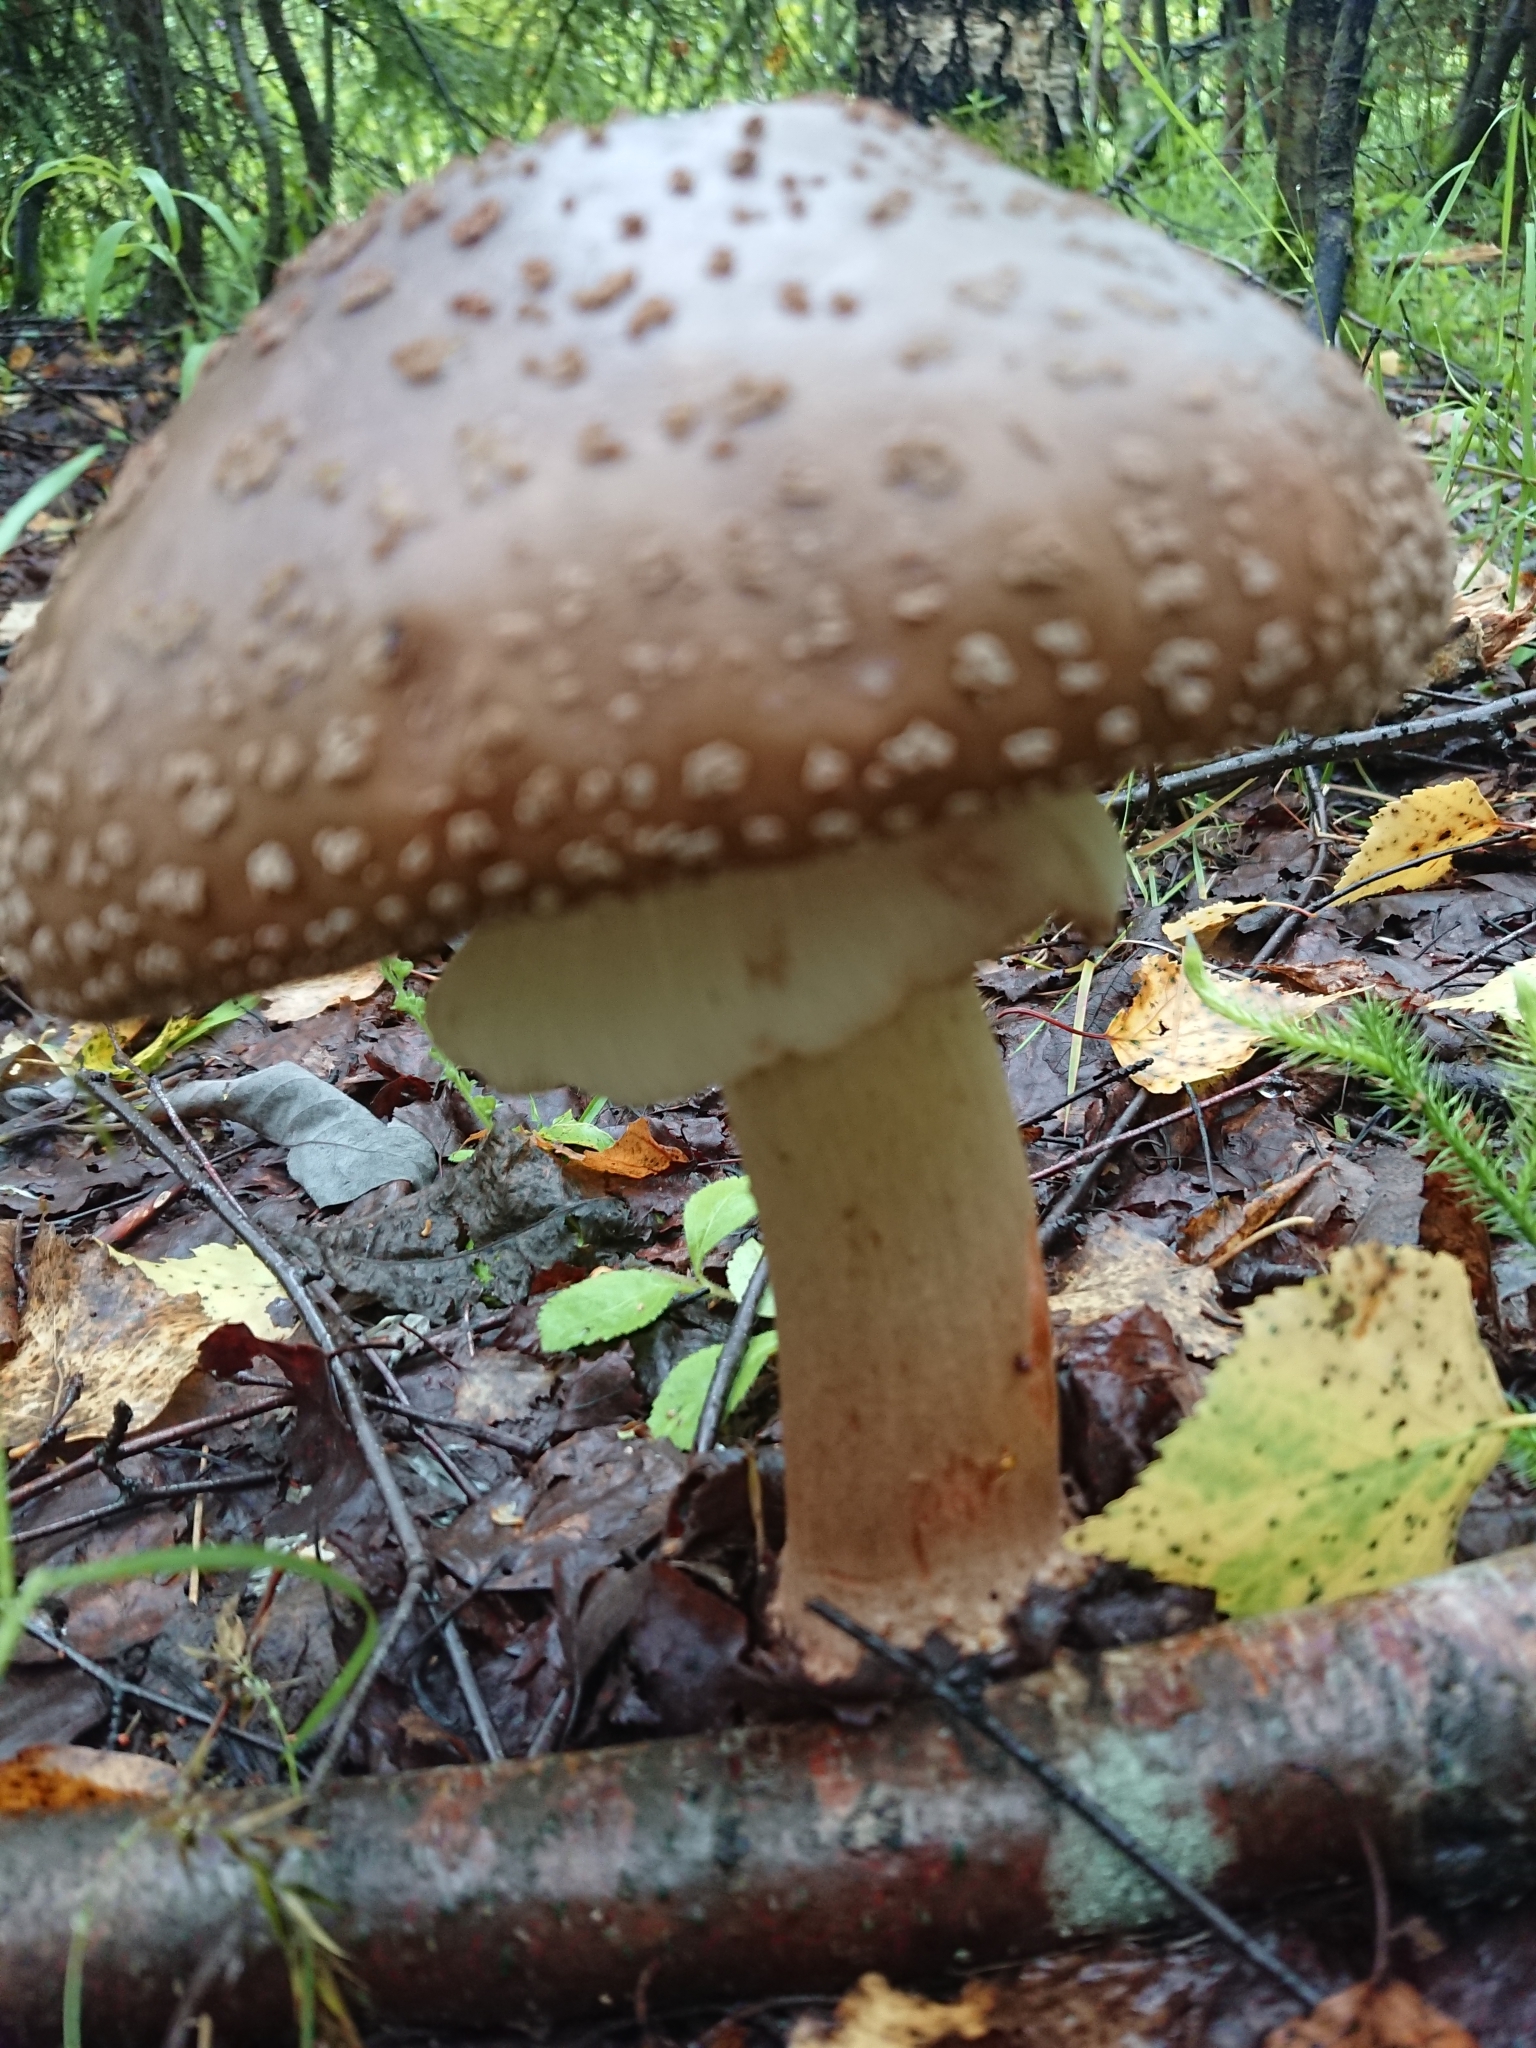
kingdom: Fungi
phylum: Basidiomycota
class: Agaricomycetes
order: Agaricales
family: Amanitaceae
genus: Amanita
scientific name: Amanita rubescens
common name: Blusher
